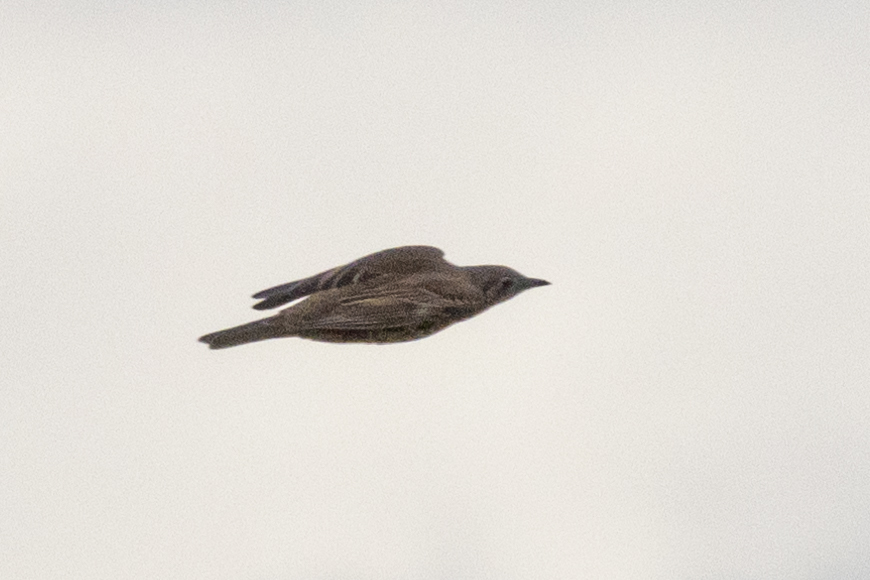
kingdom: Animalia
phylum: Chordata
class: Aves
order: Passeriformes
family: Turdidae
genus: Turdus
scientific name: Turdus viscivorus
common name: Mistle thrush
